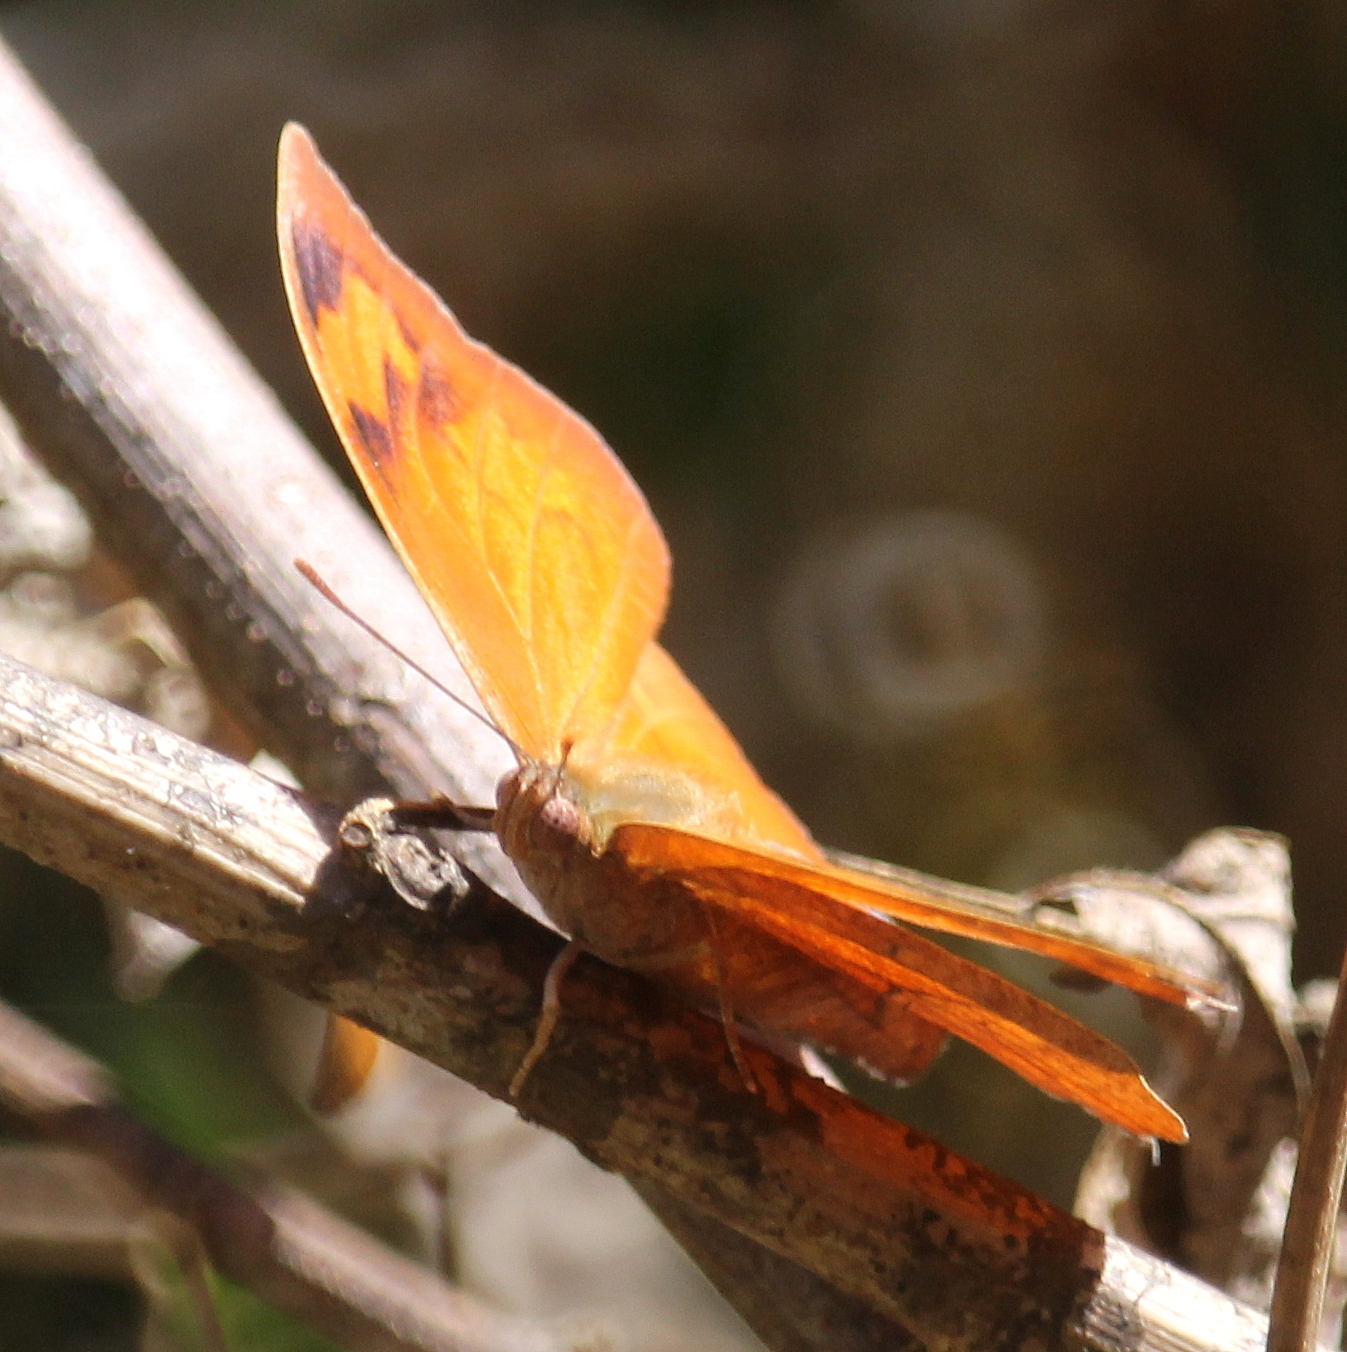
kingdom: Animalia
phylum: Arthropoda
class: Insecta
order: Lepidoptera
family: Nymphalidae
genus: Fountainea
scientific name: Fountainea
